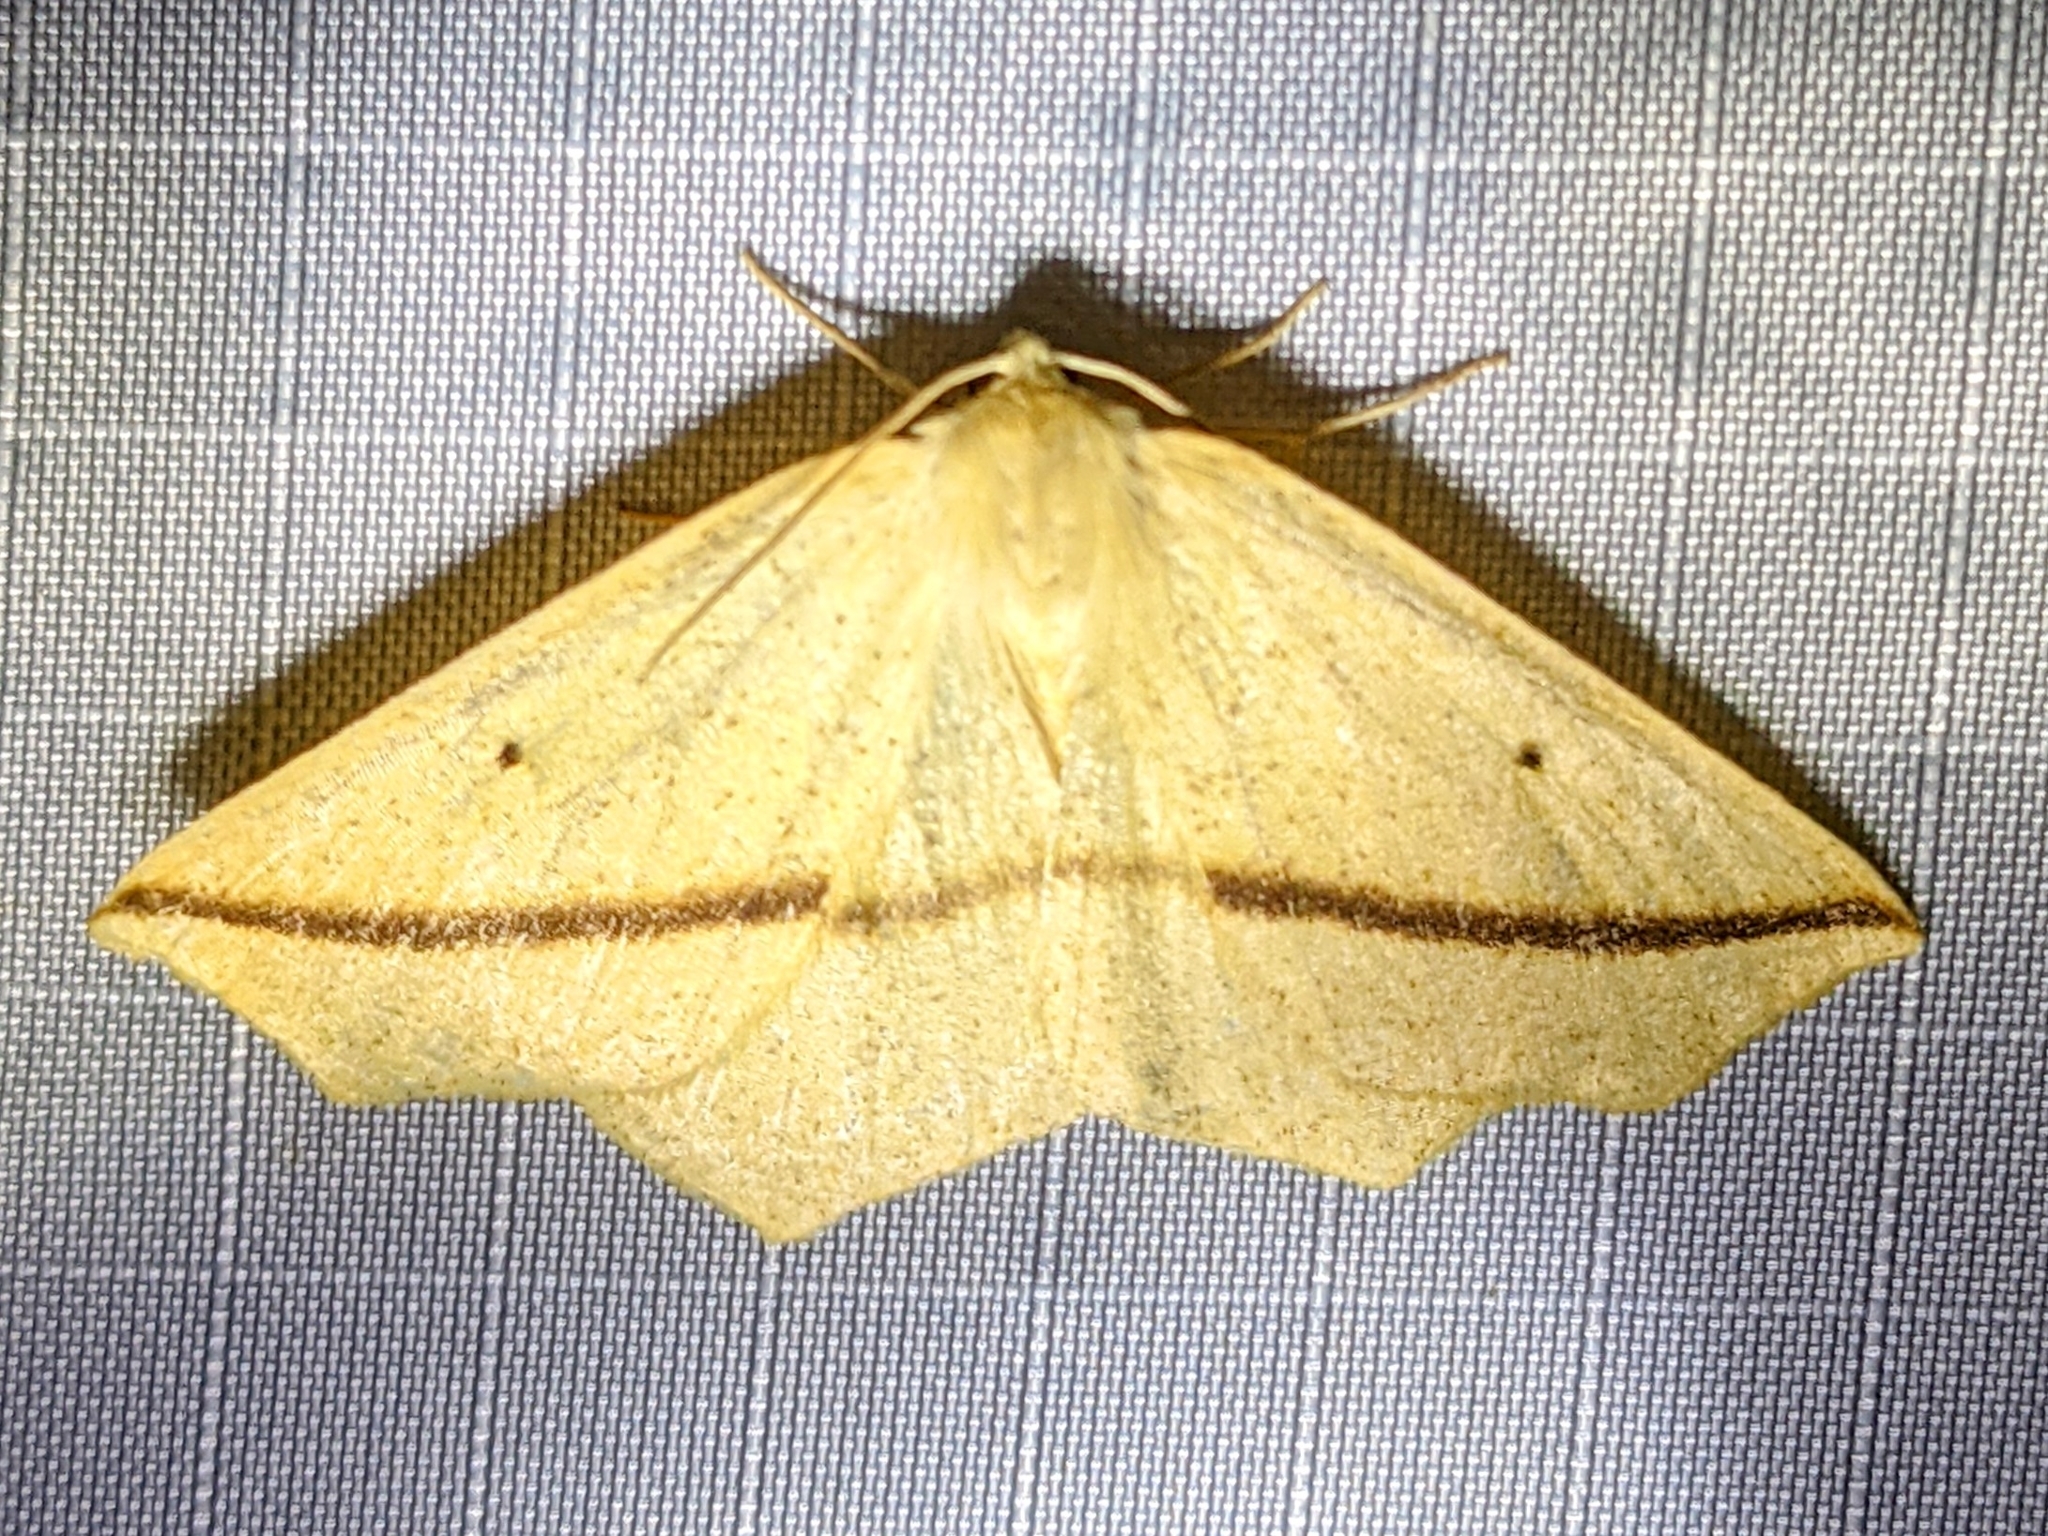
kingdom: Animalia
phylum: Arthropoda
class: Insecta
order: Lepidoptera
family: Geometridae
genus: Tetracis
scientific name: Tetracis crocallata
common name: Yellow slant-line
